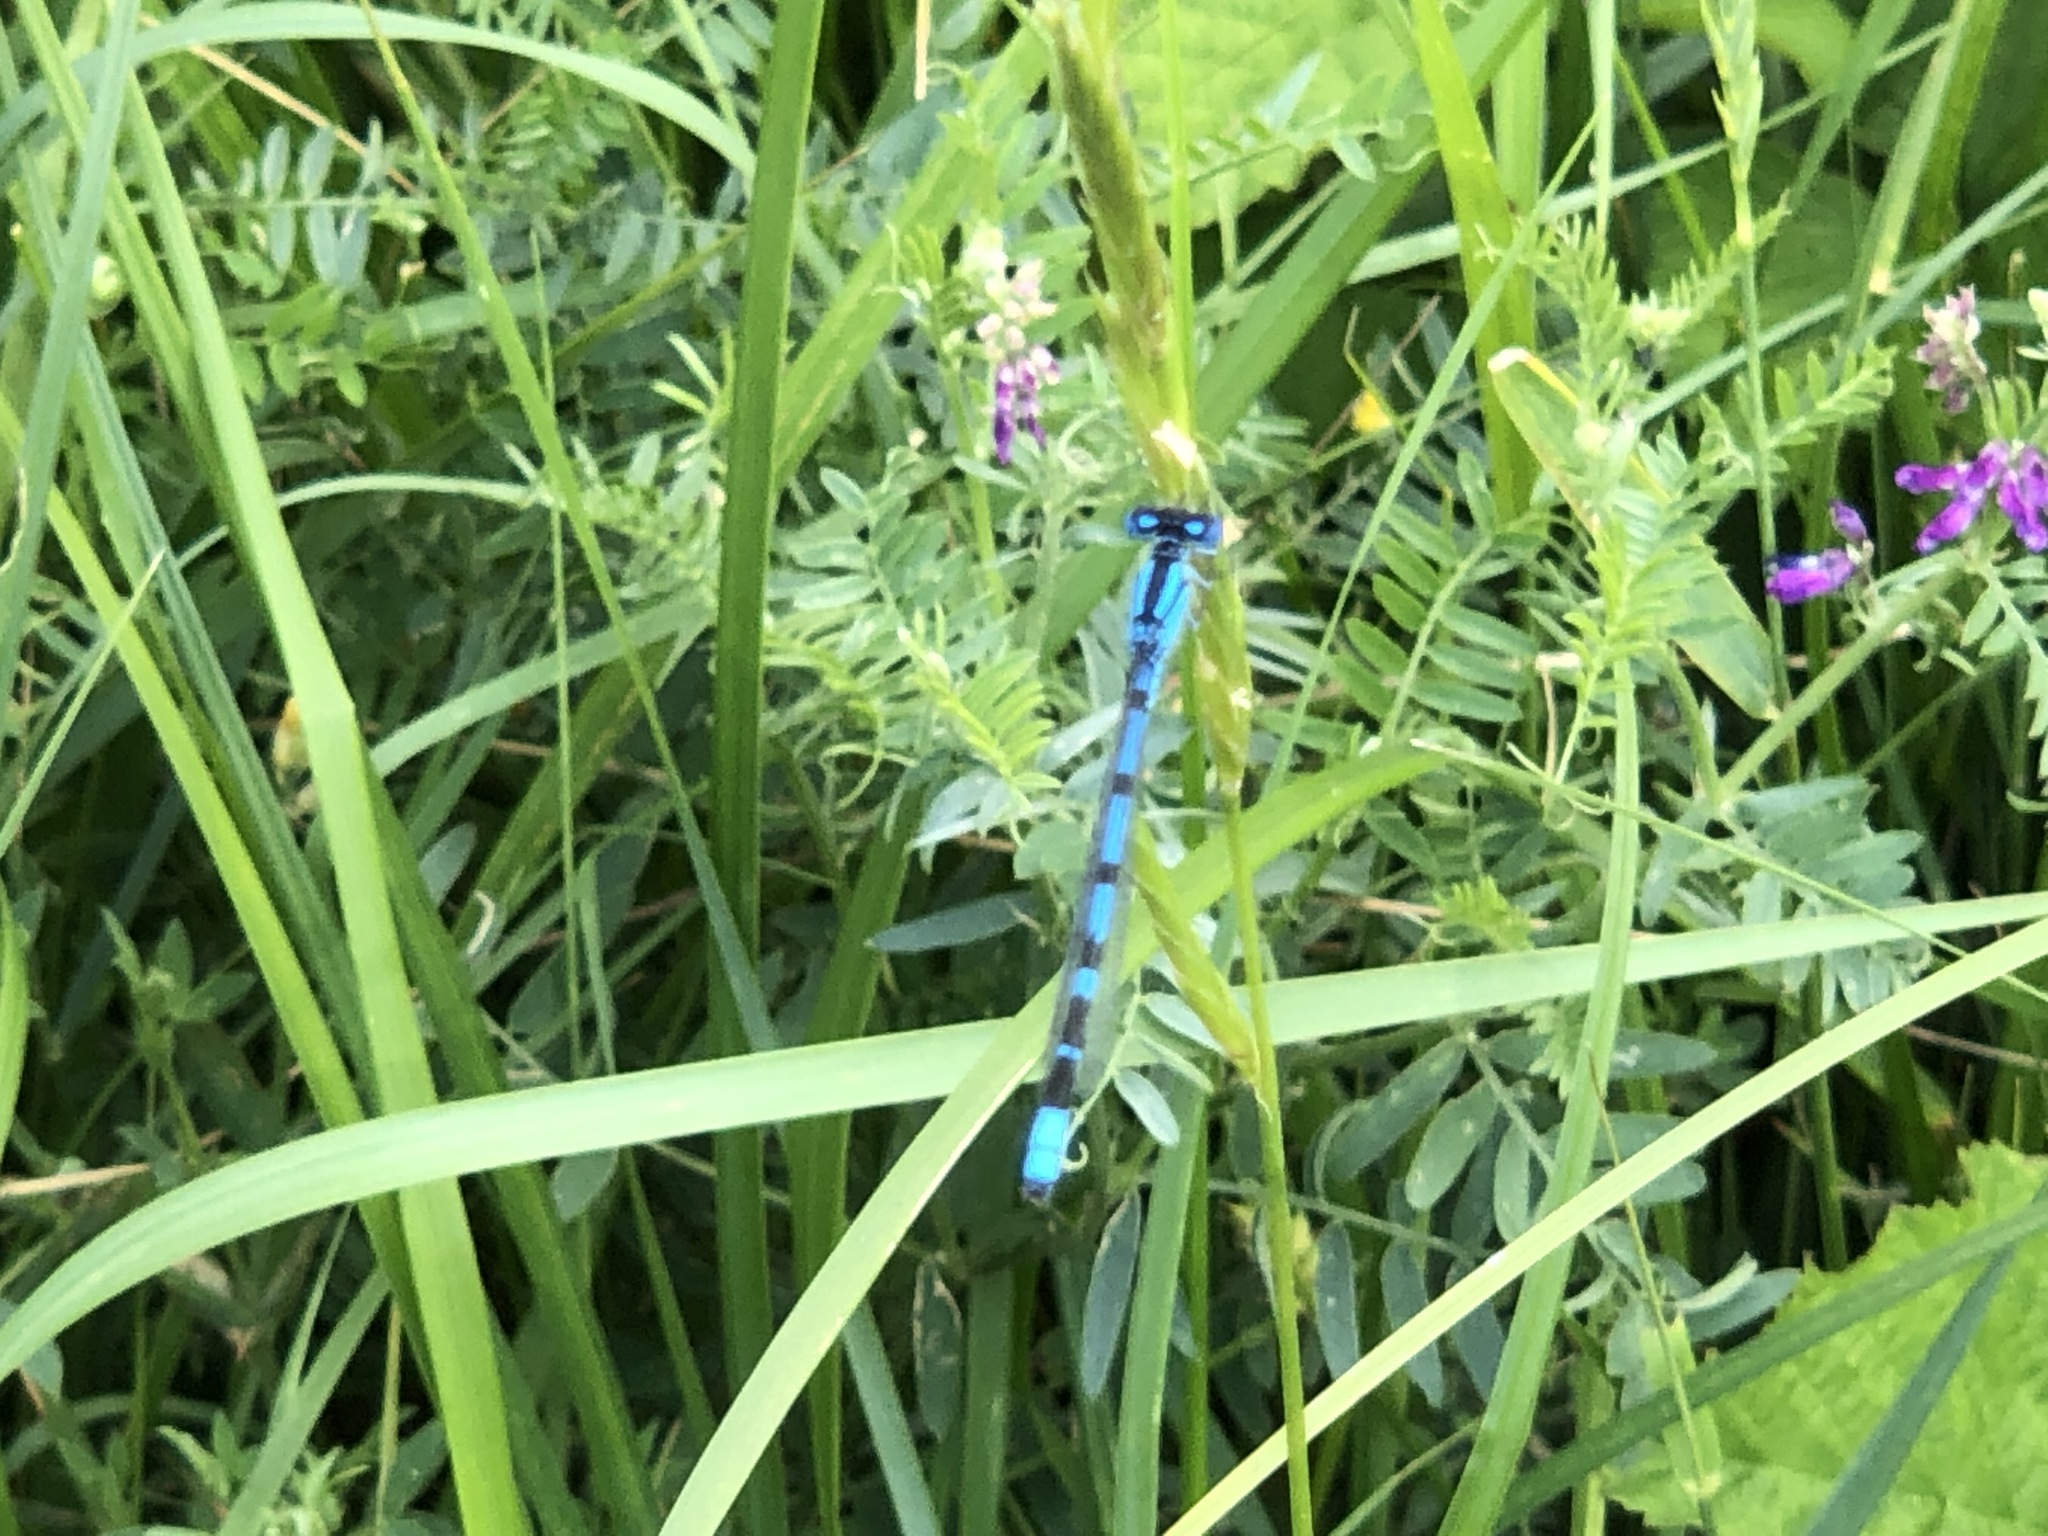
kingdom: Animalia
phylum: Arthropoda
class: Insecta
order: Odonata
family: Coenagrionidae
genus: Enallagma
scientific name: Enallagma cyathigerum
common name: Common blue damselfly
